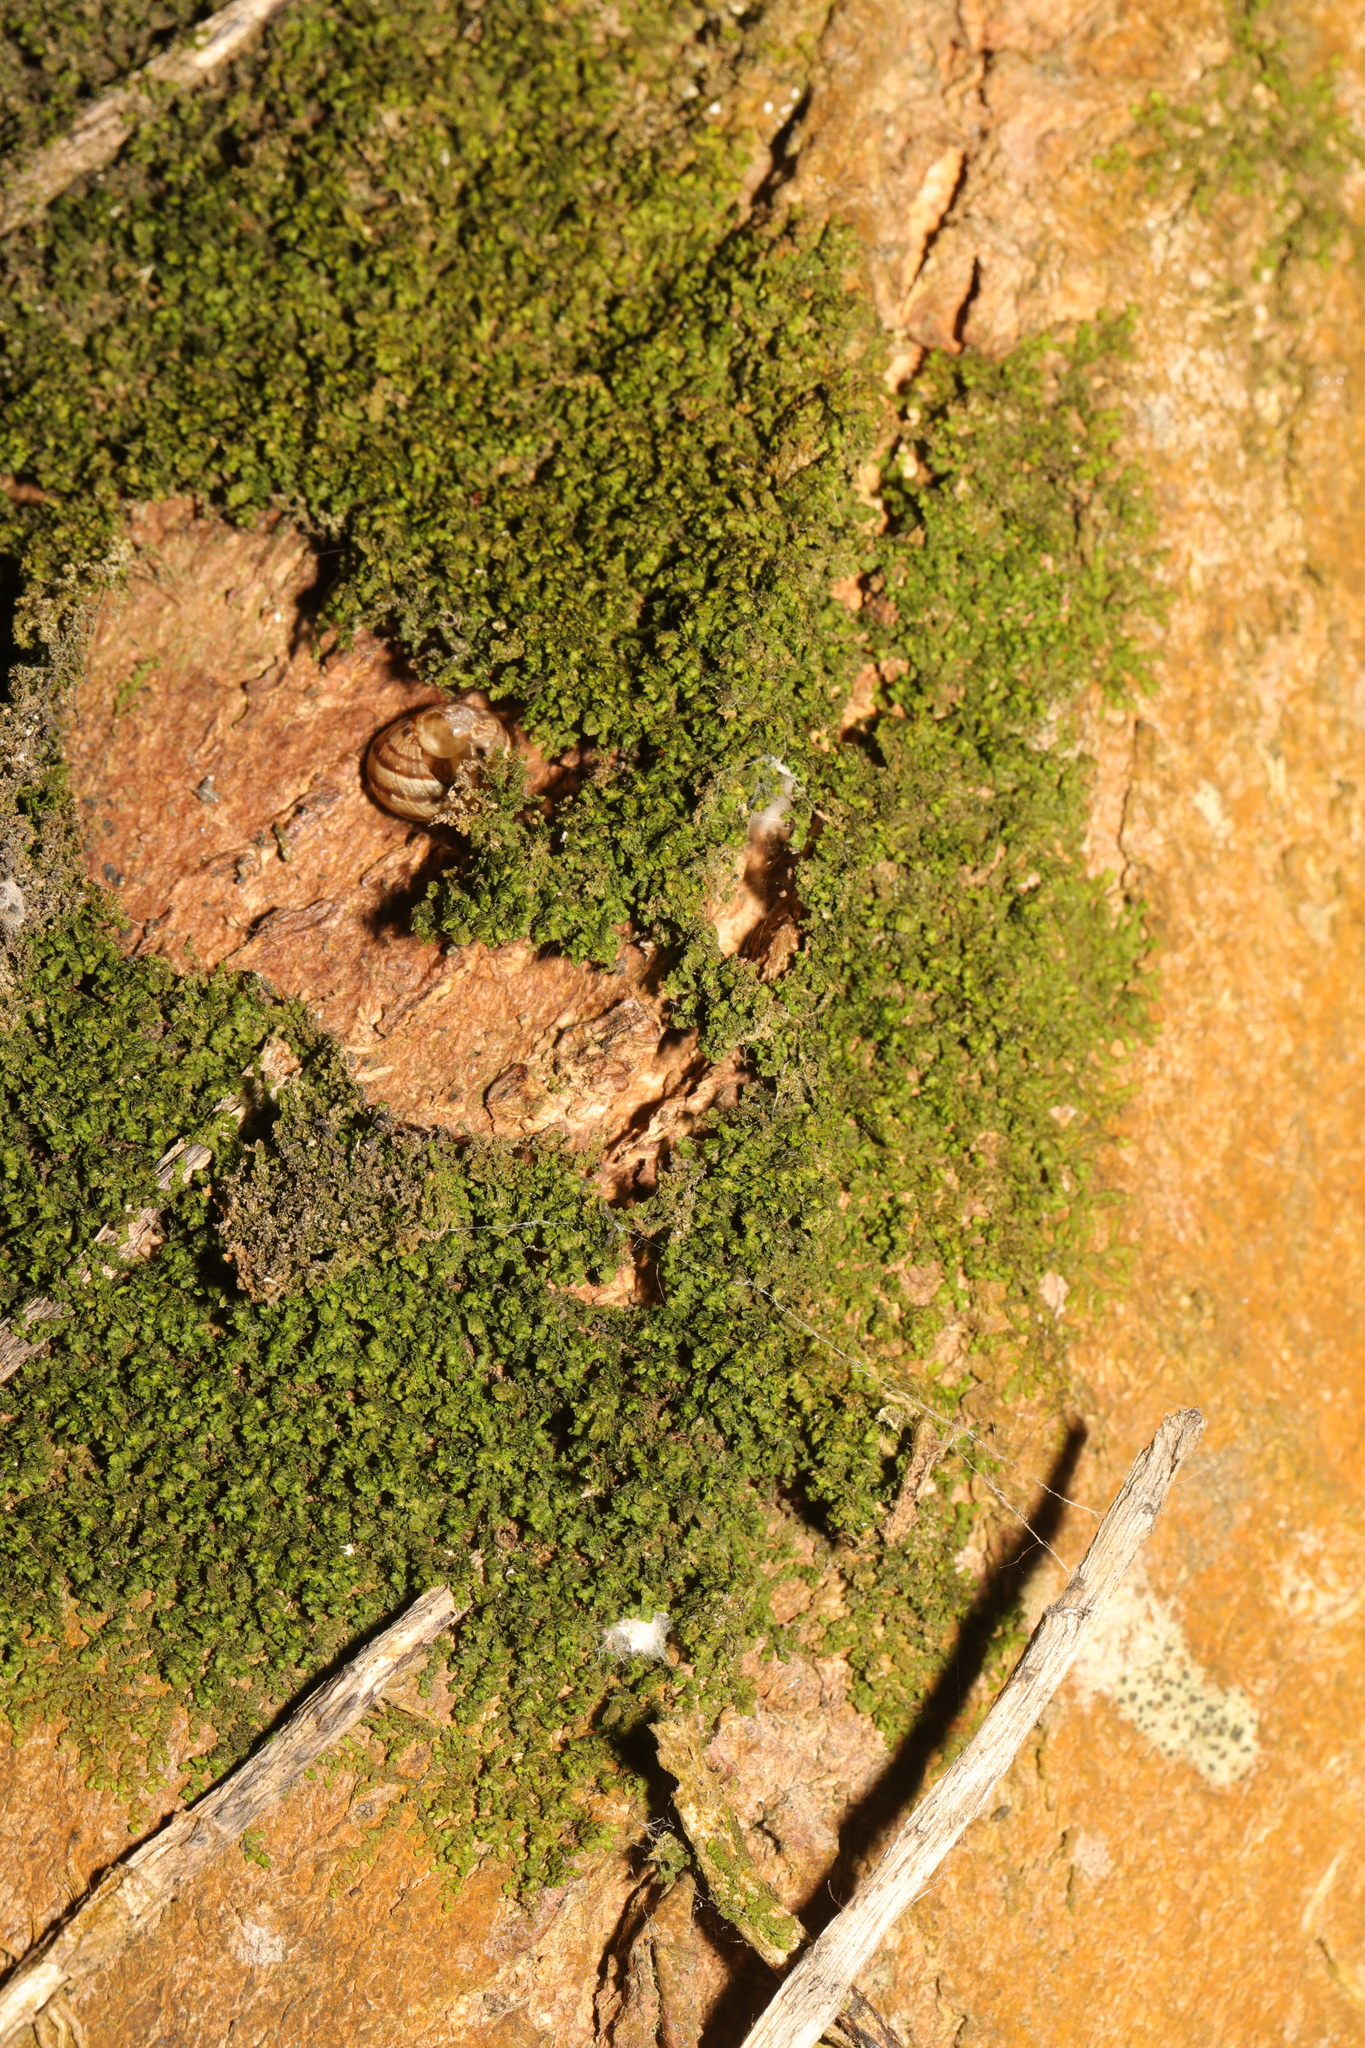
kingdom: Plantae
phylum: Marchantiophyta
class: Jungermanniopsida
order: Porellales
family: Frullaniaceae
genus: Frullania
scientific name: Frullania dilatata
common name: Dilated scalewort
